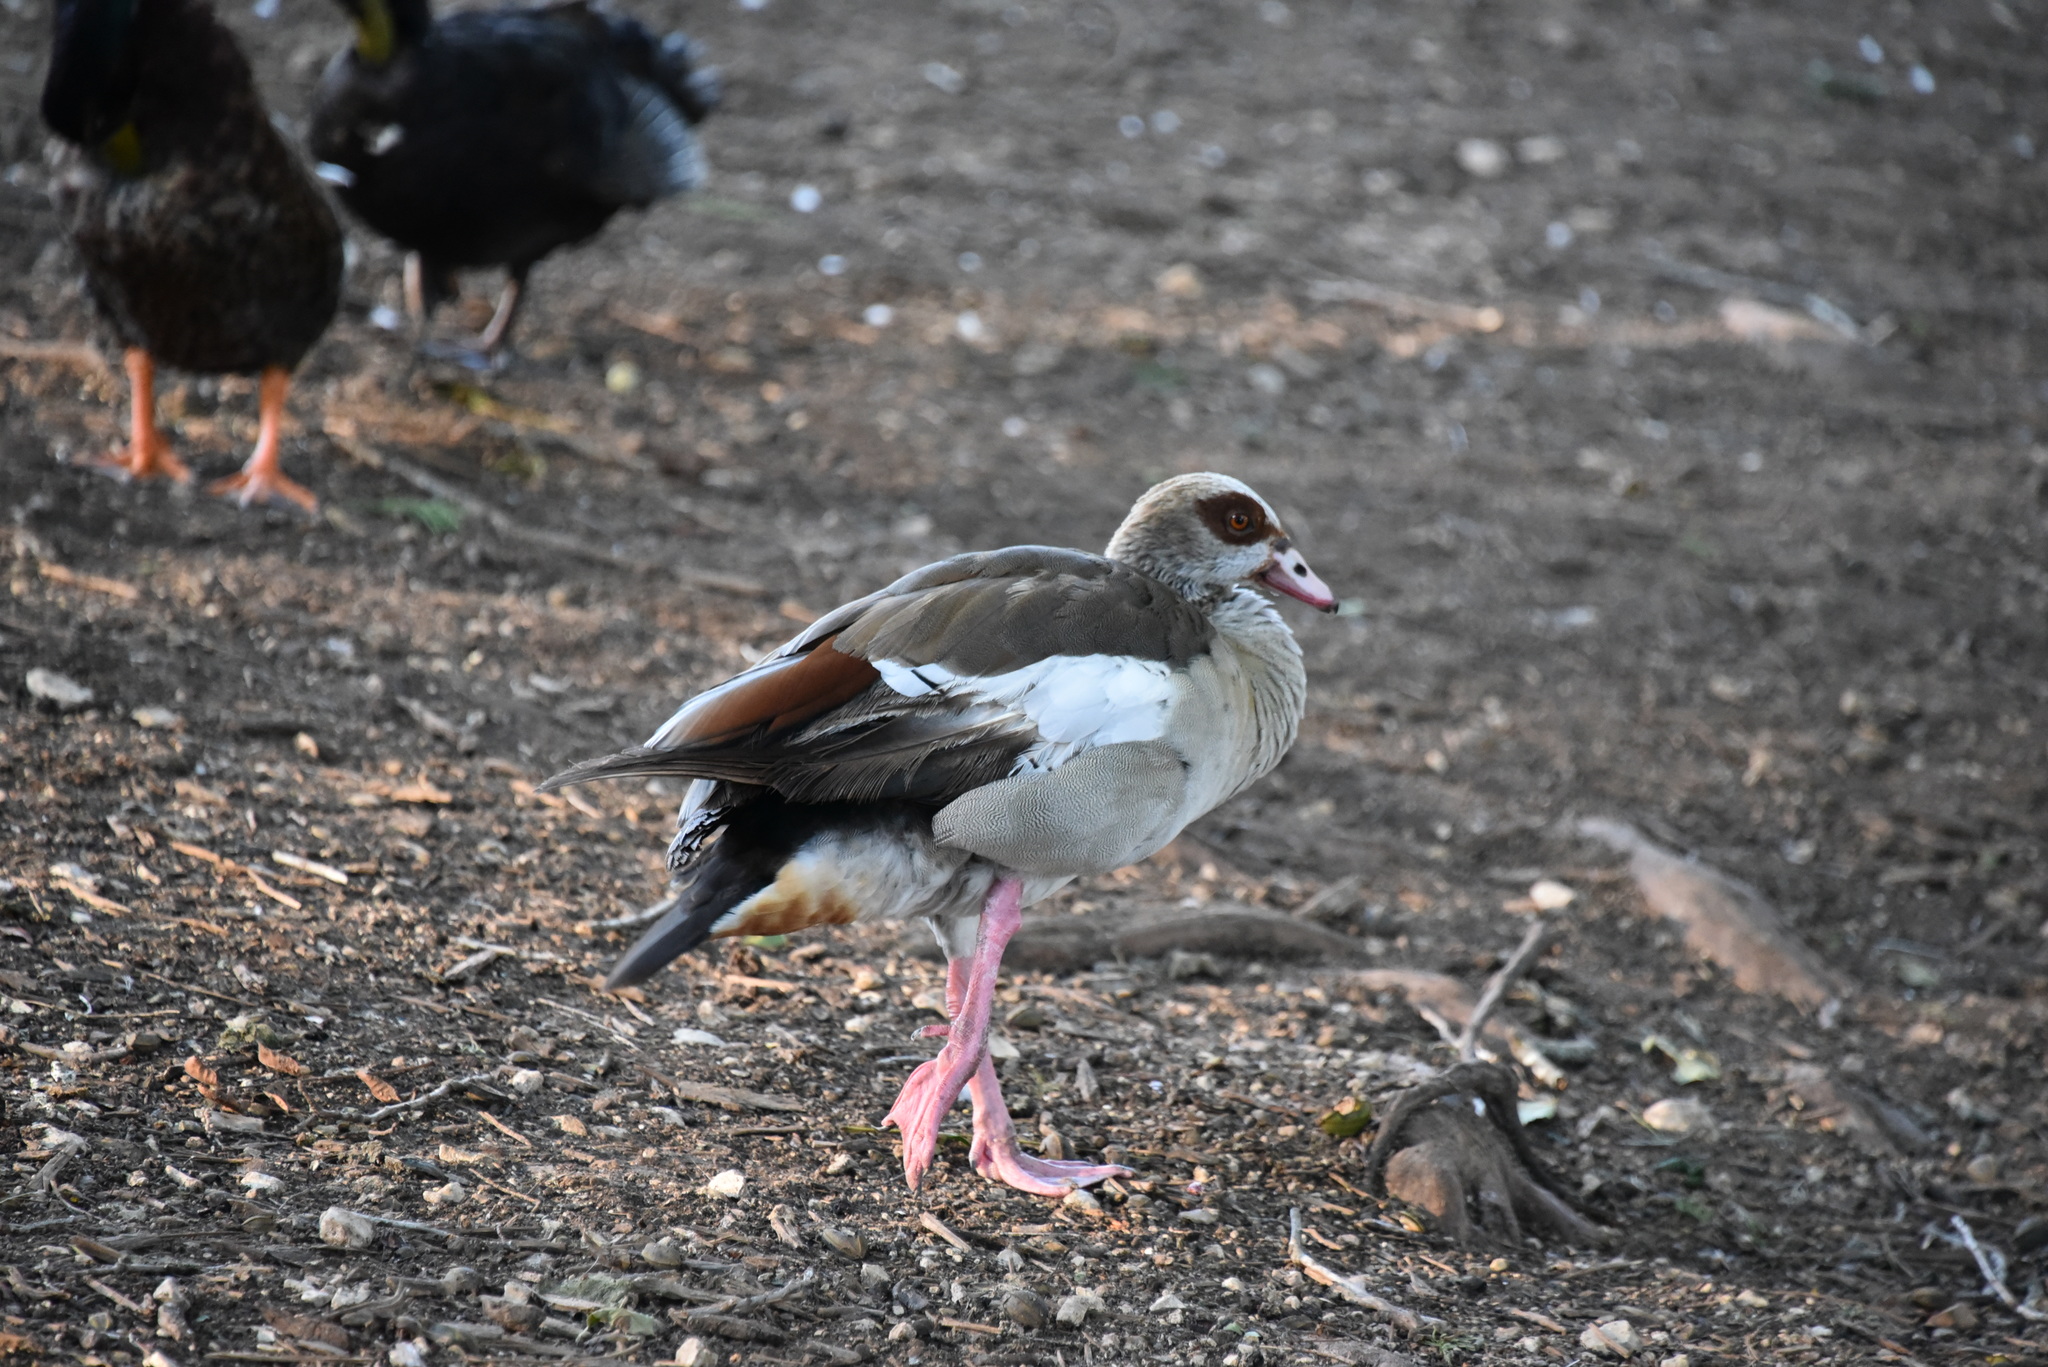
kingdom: Animalia
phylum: Chordata
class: Aves
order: Anseriformes
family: Anatidae
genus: Alopochen
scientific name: Alopochen aegyptiaca
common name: Egyptian goose
